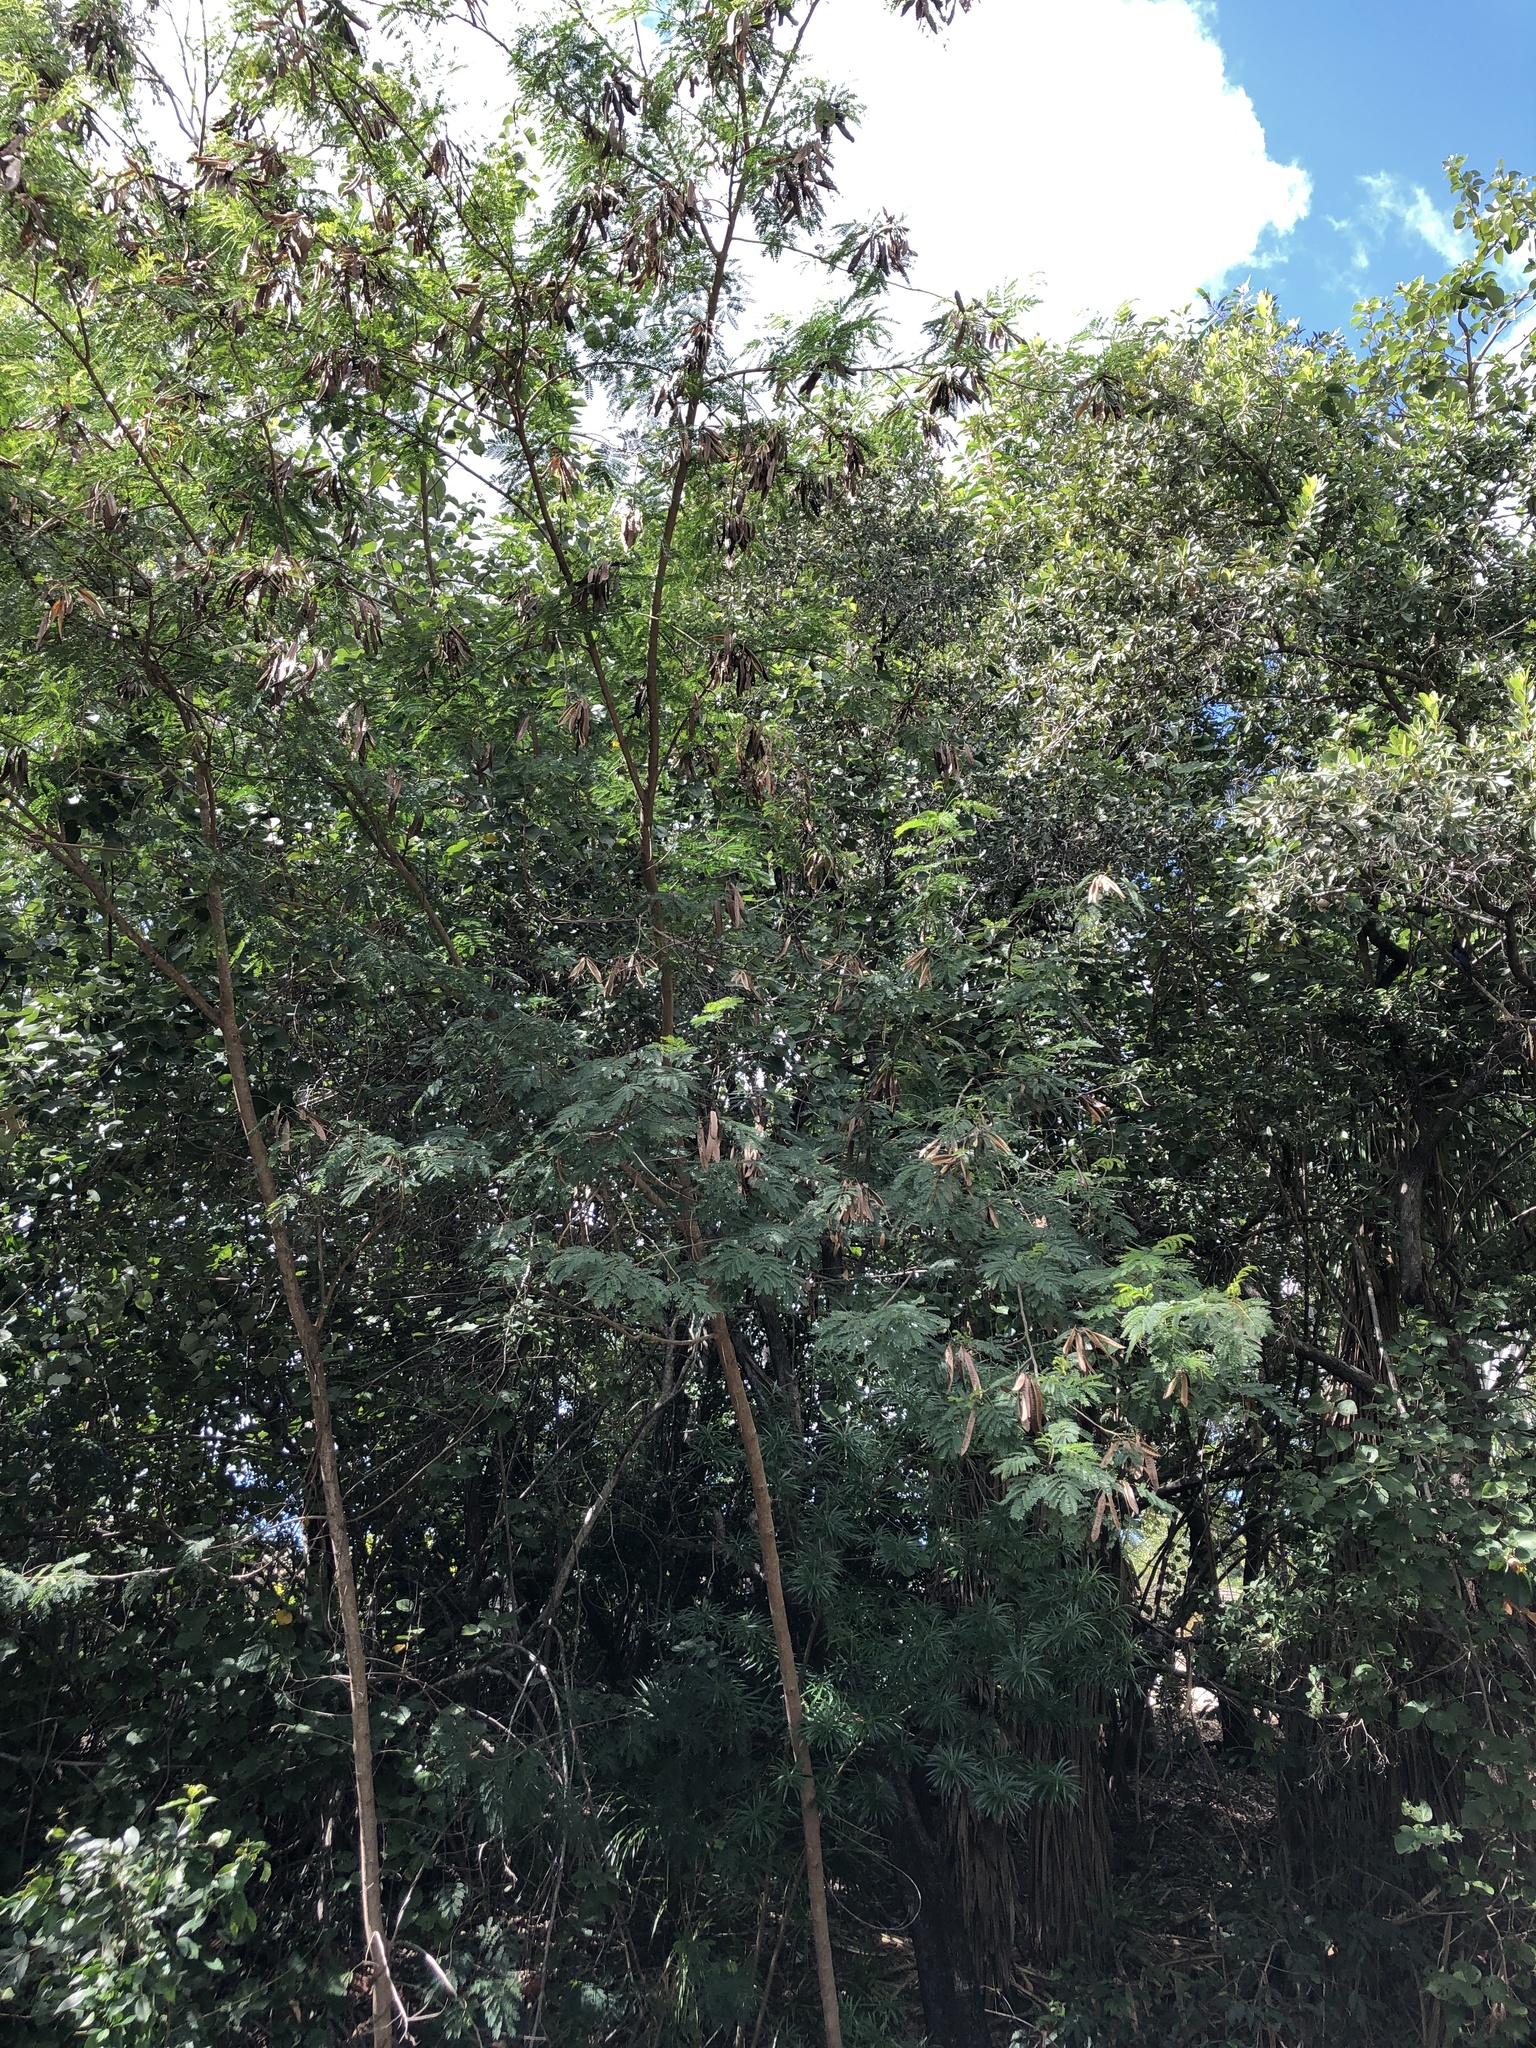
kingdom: Plantae
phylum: Tracheophyta
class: Magnoliopsida
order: Fabales
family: Fabaceae
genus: Leucaena
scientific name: Leucaena leucocephala
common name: White leadtree
